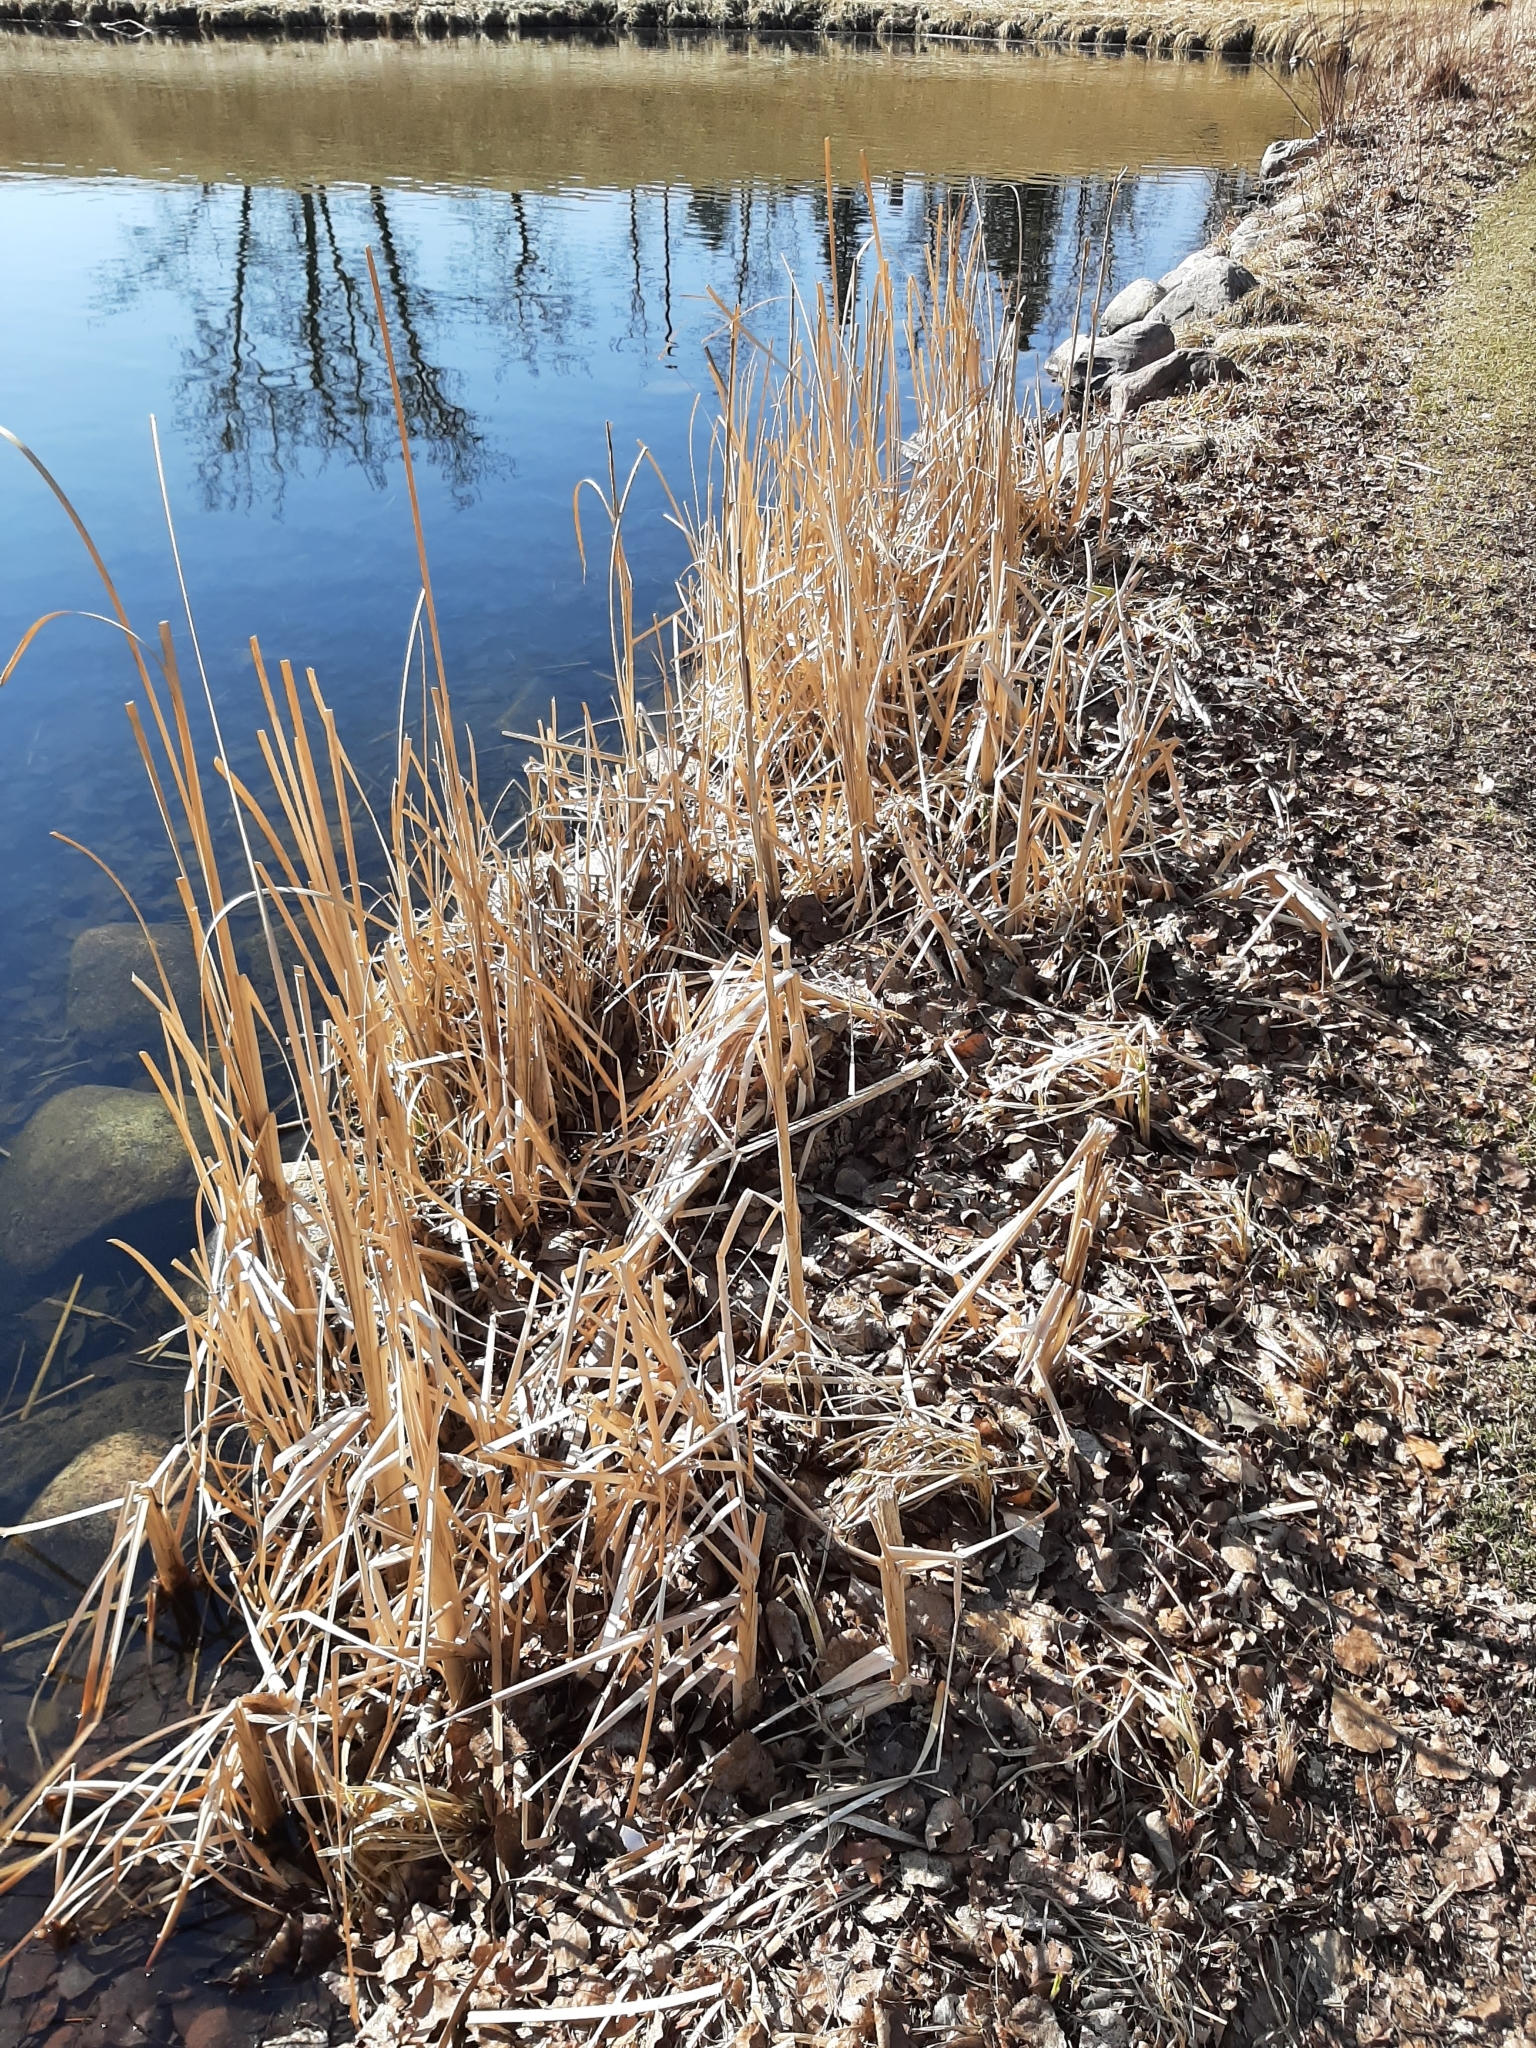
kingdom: Plantae
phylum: Tracheophyta
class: Liliopsida
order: Poales
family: Typhaceae
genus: Typha
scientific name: Typha latifolia
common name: Broadleaf cattail
